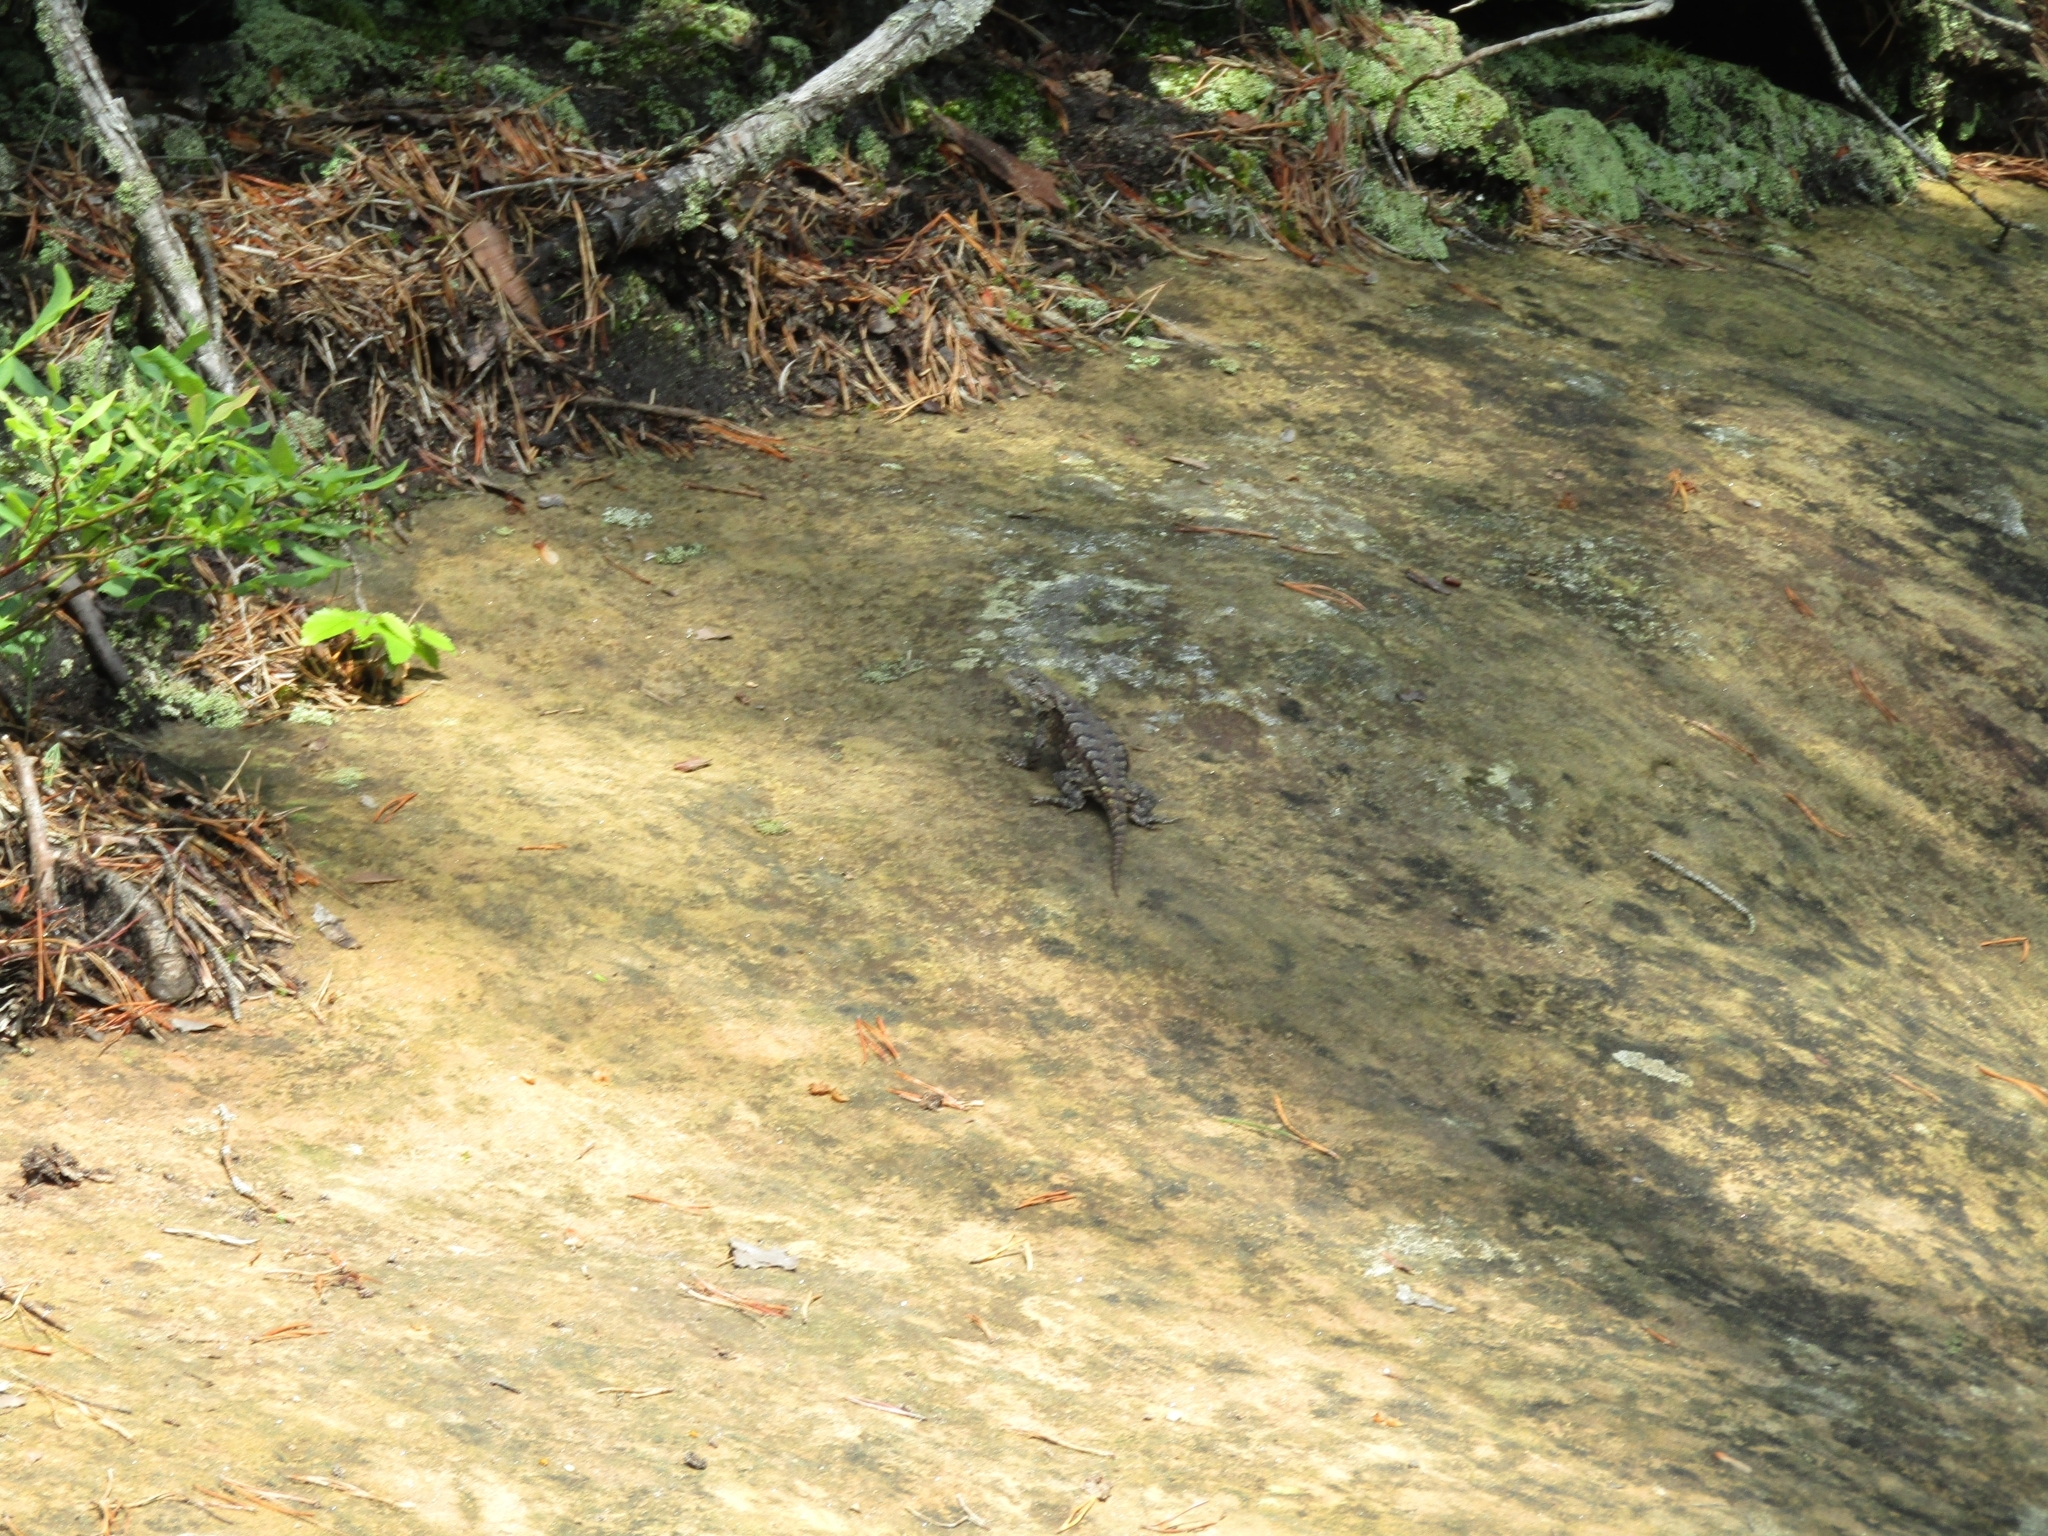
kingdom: Animalia
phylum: Chordata
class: Squamata
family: Phrynosomatidae
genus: Sceloporus
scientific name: Sceloporus undulatus
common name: Eastern fence lizard
